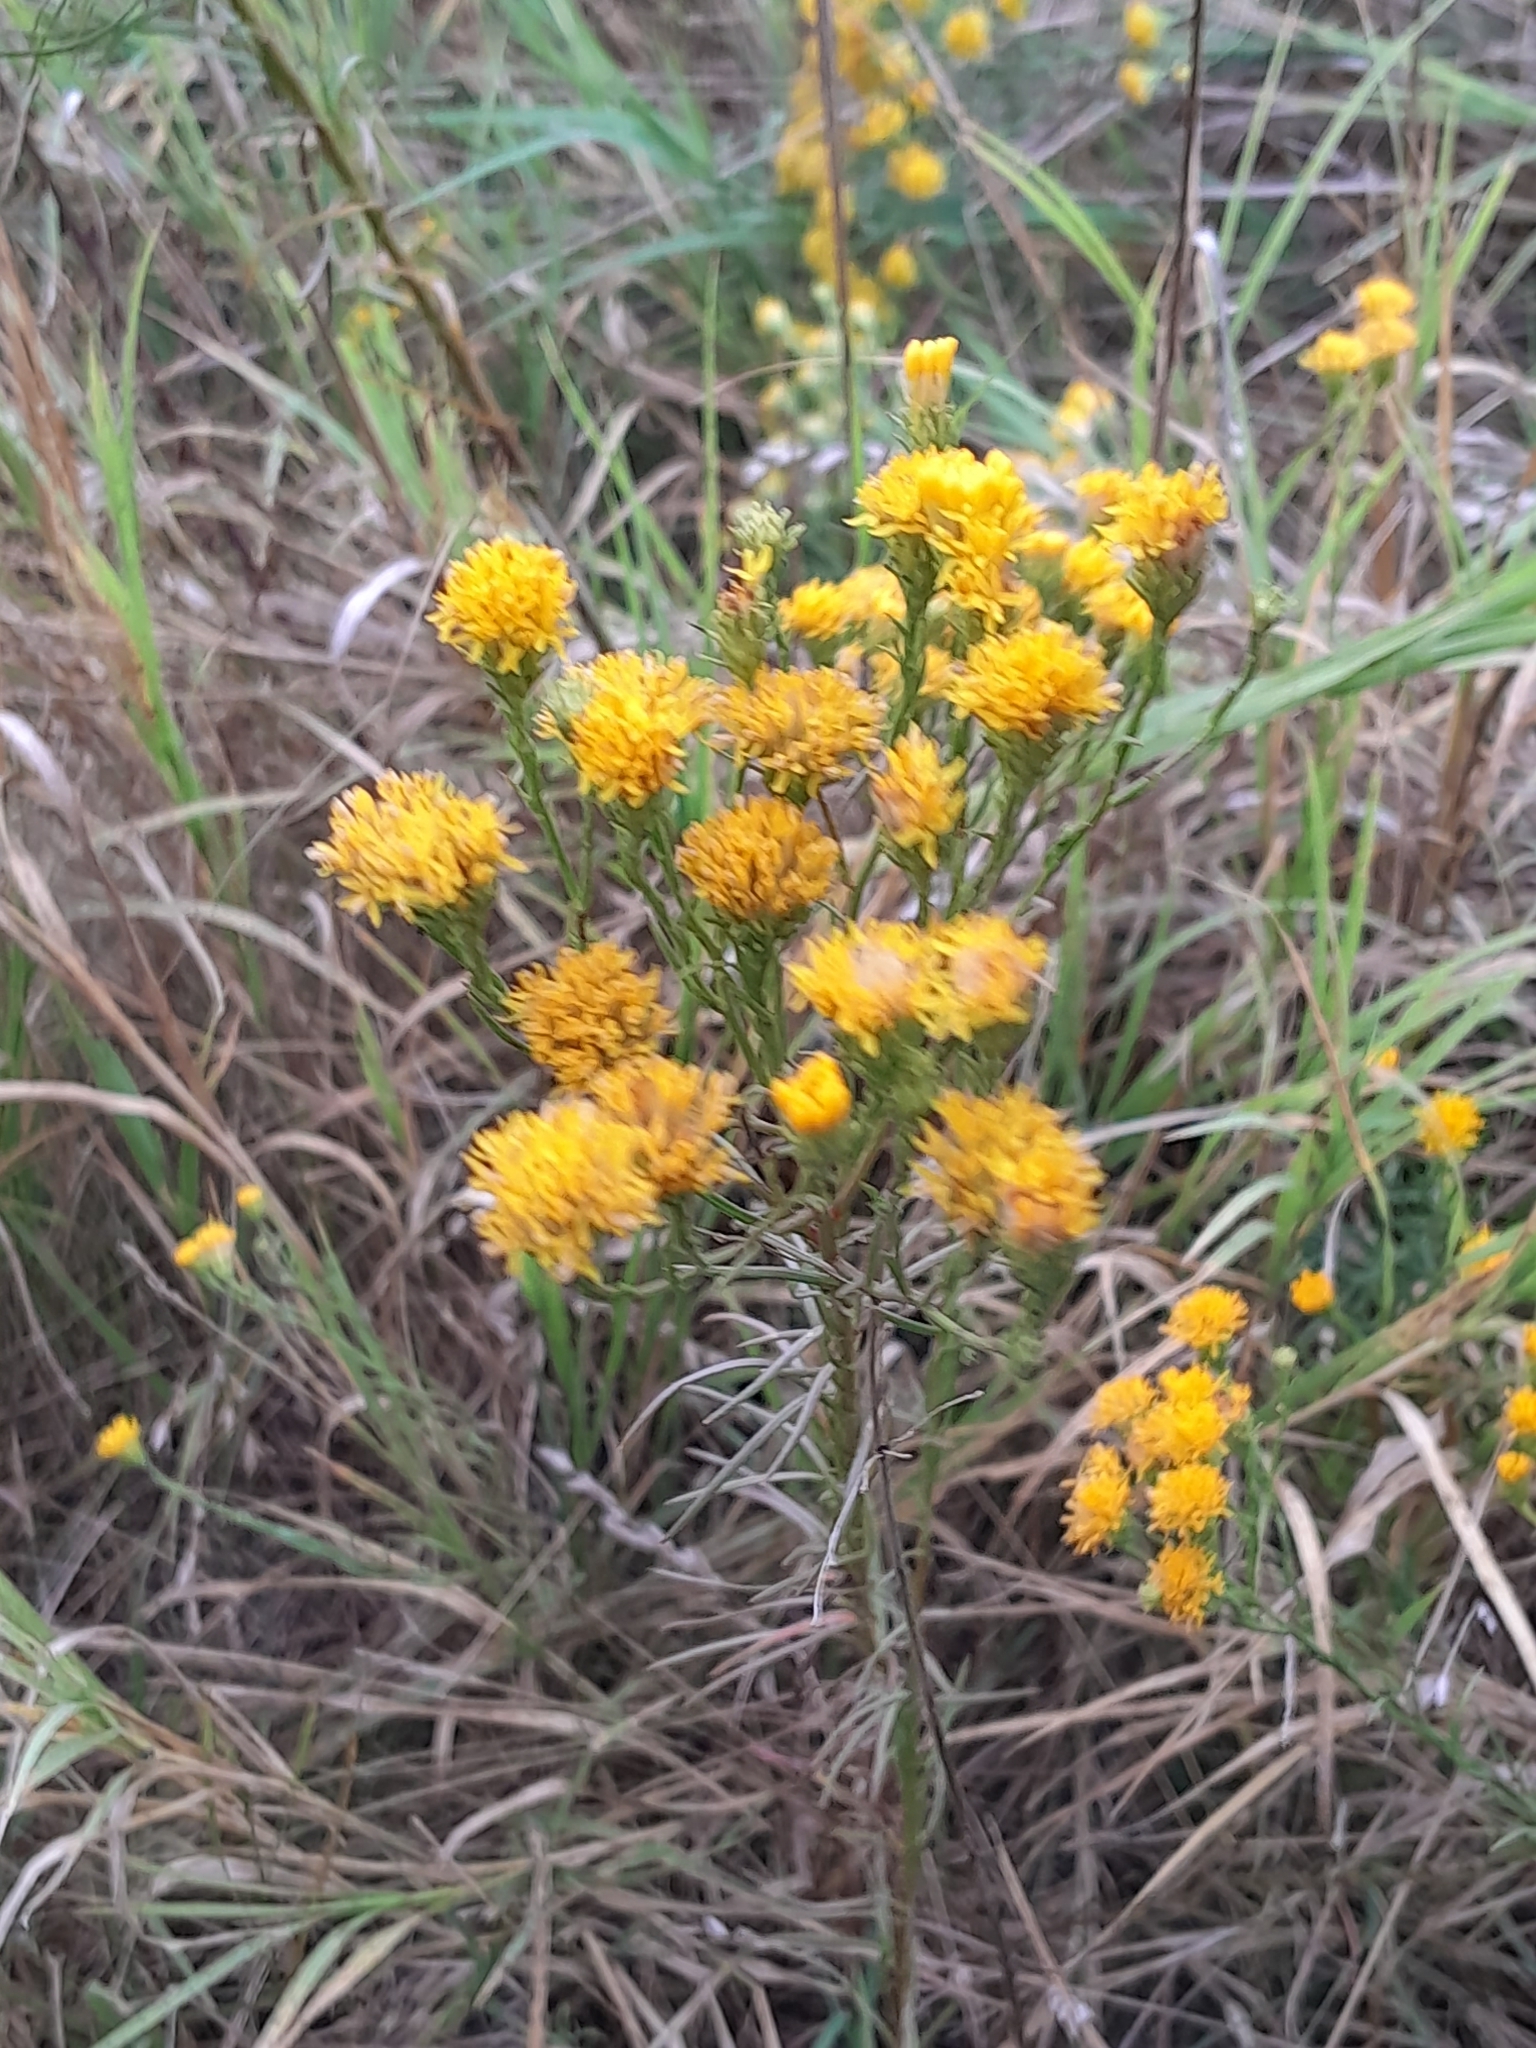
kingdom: Plantae
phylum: Tracheophyta
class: Magnoliopsida
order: Asterales
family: Asteraceae
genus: Galatella
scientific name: Galatella linosyris
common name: Goldilocks aster
